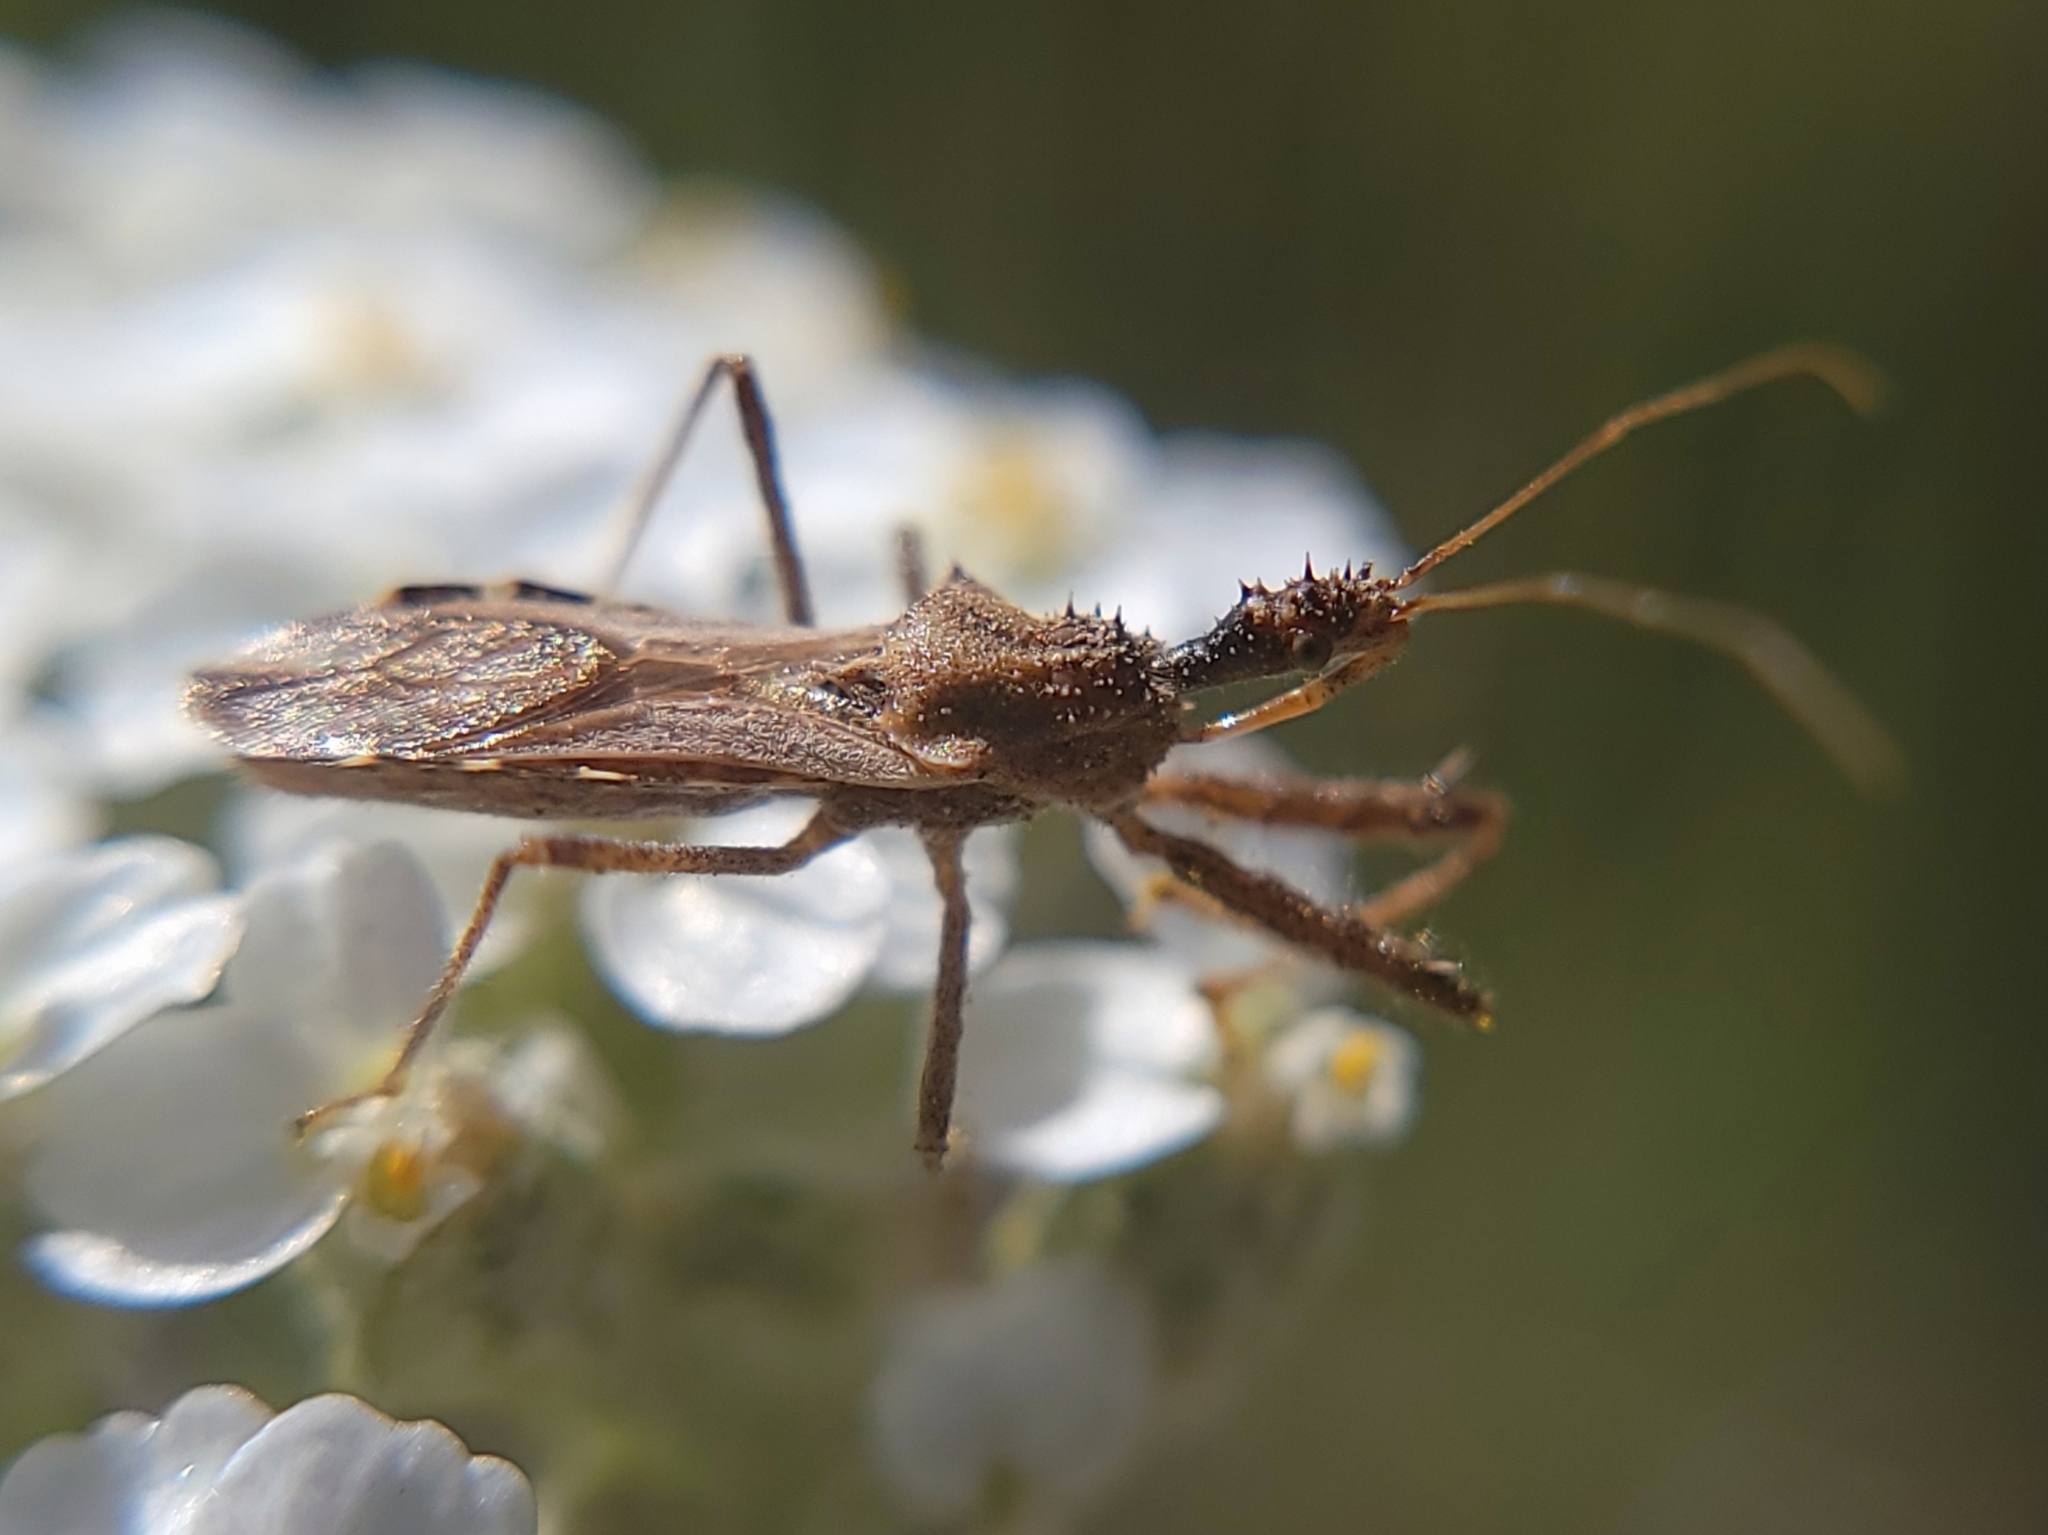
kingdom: Animalia
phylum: Arthropoda
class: Insecta
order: Hemiptera
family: Reduviidae
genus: Zelus
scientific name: Zelus tetracanthus
